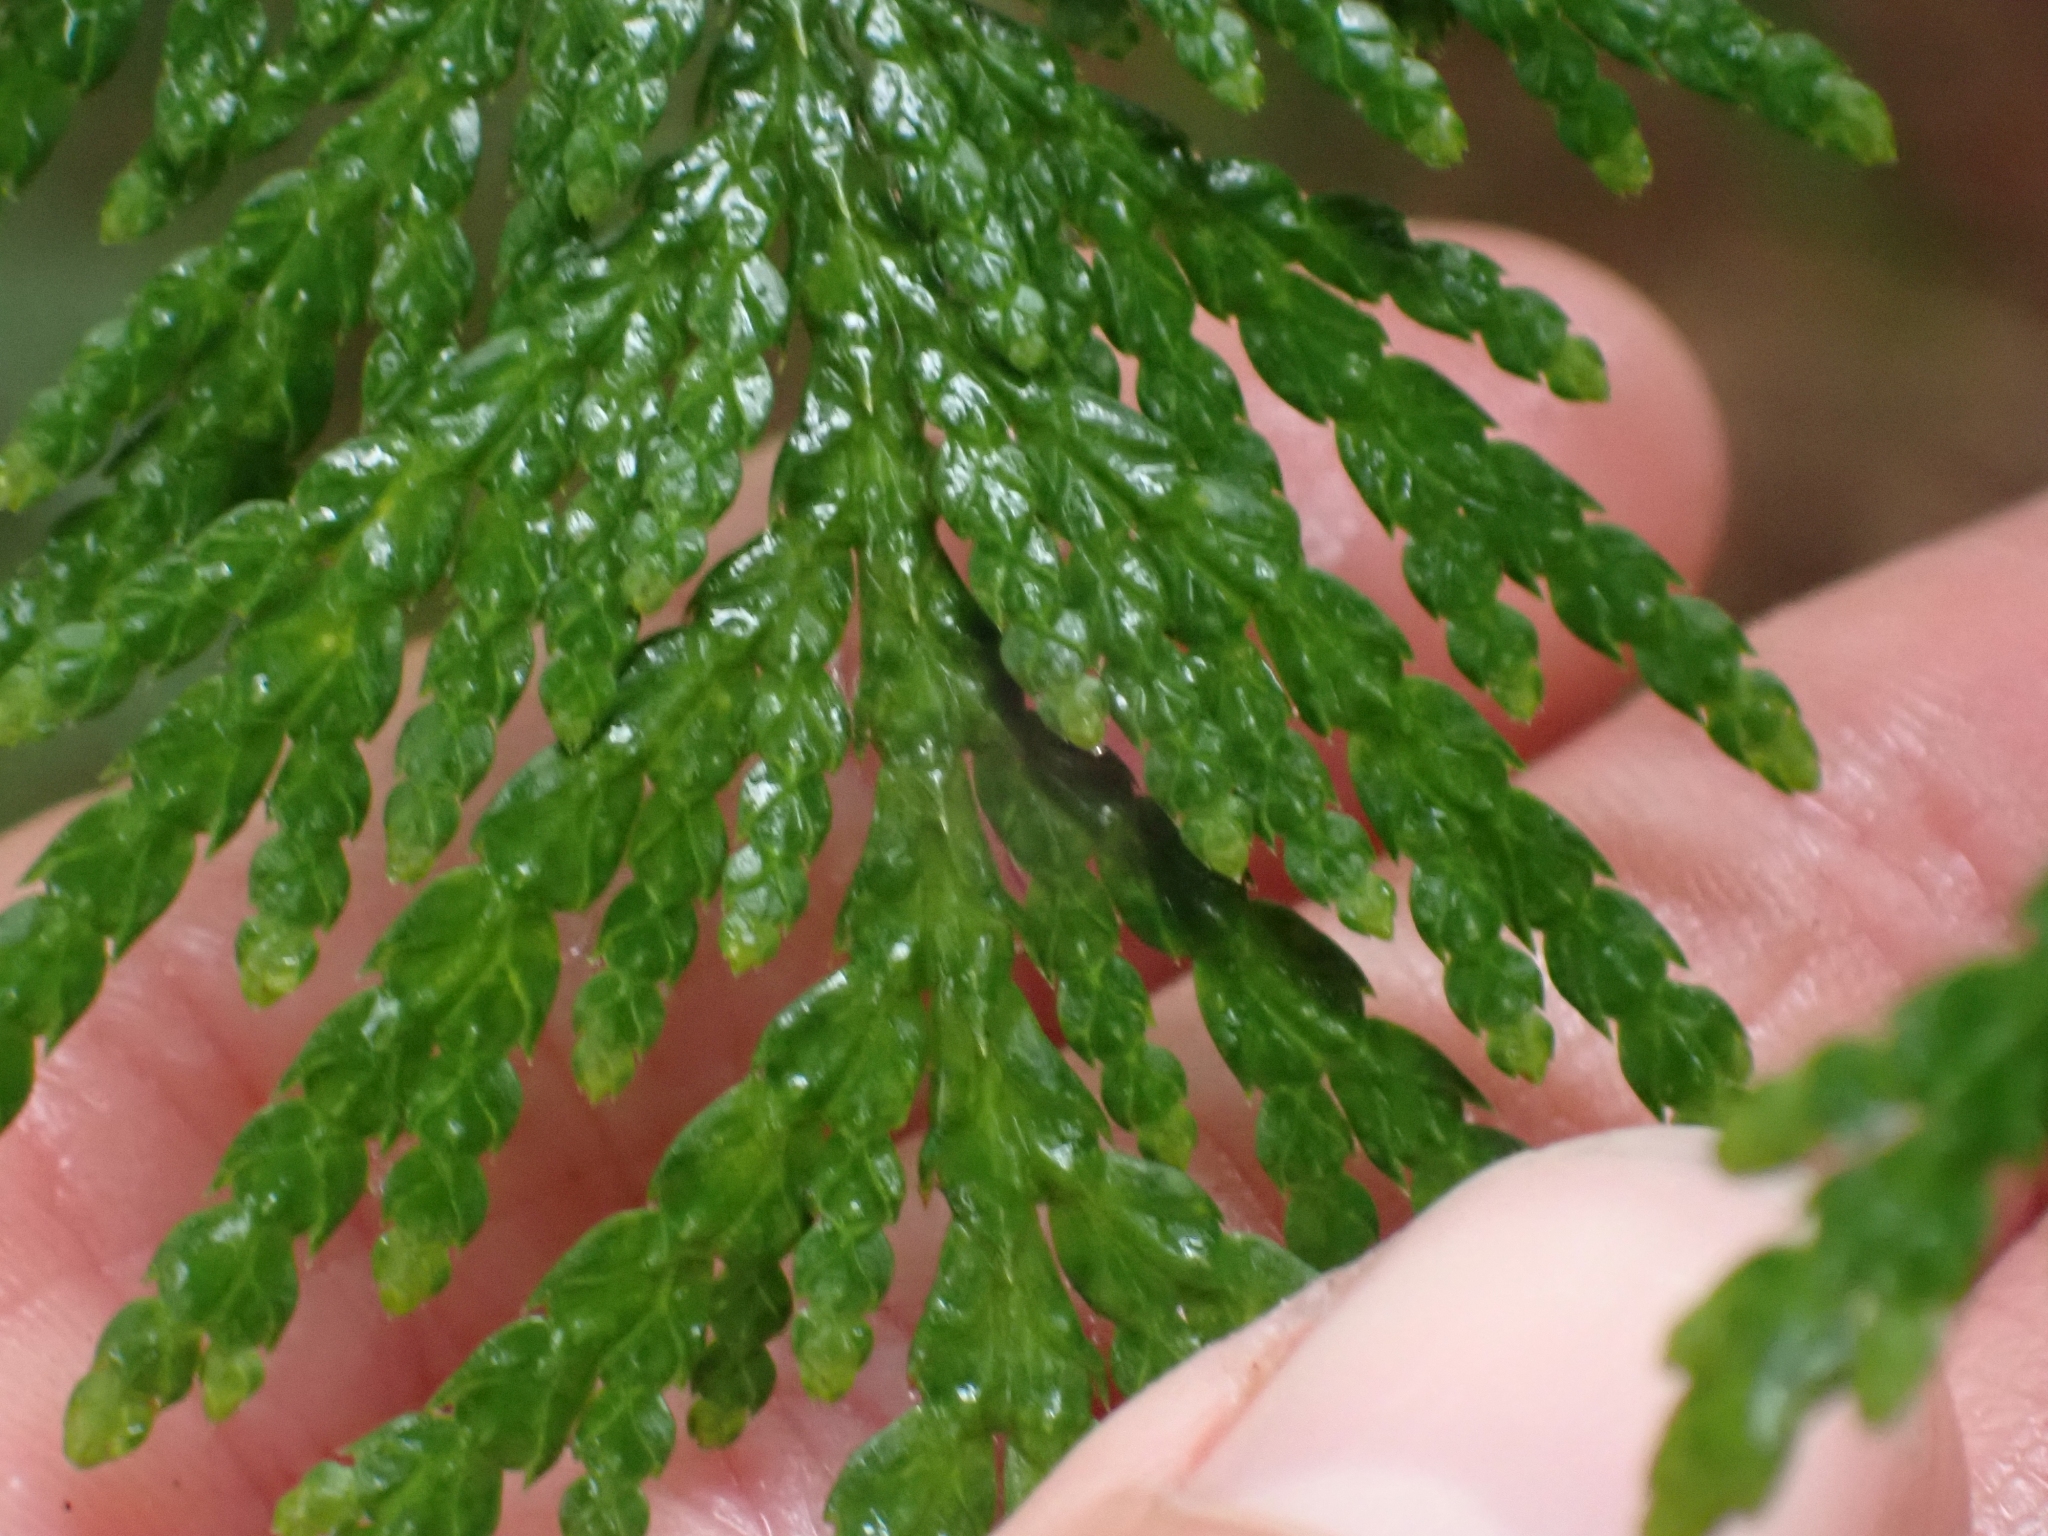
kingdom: Plantae
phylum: Tracheophyta
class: Pinopsida
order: Pinales
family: Cupressaceae
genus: Thuja
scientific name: Thuja plicata
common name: Western red-cedar
